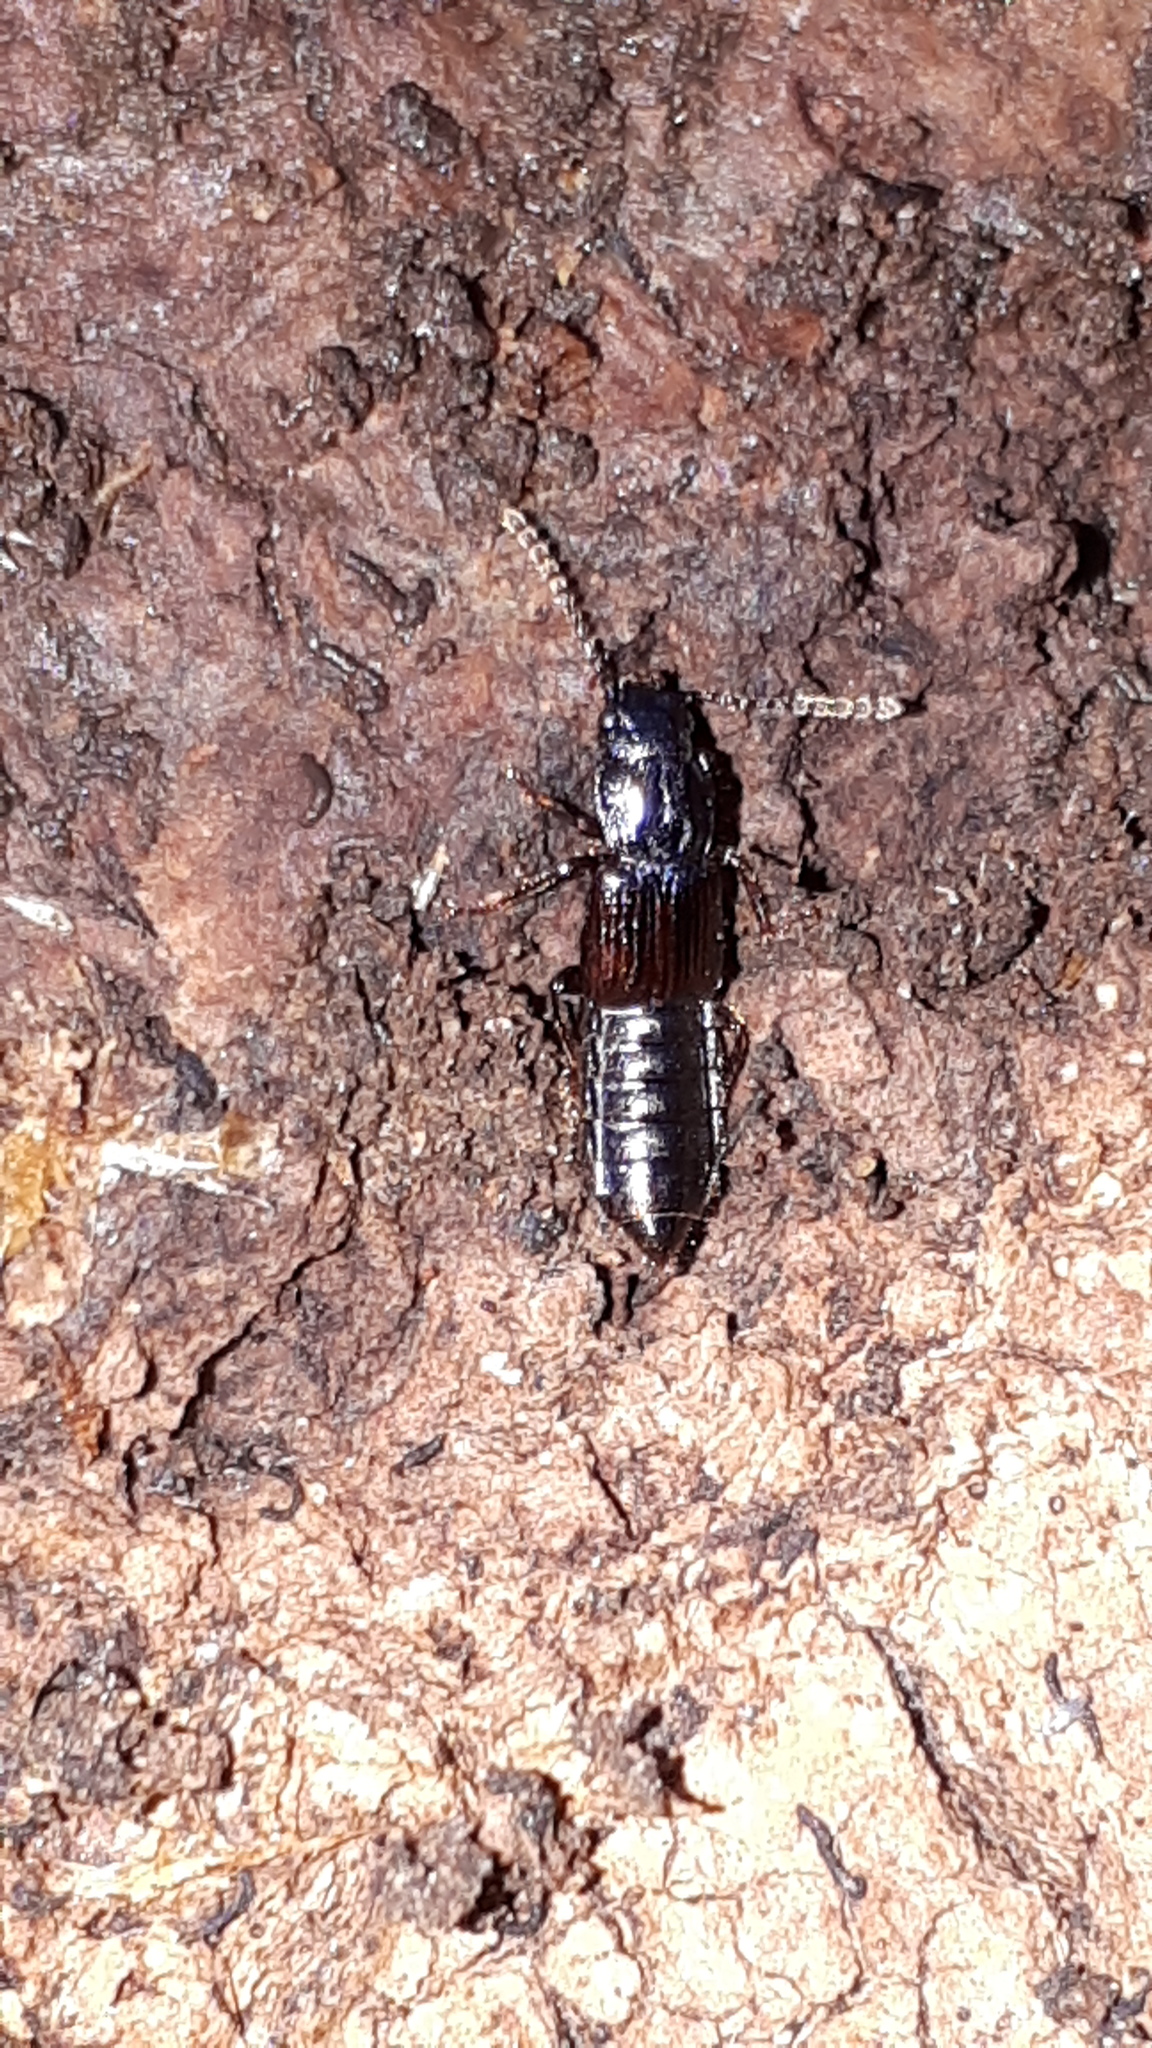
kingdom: Animalia
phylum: Arthropoda
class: Insecta
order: Coleoptera
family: Staphylinidae
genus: Coprophilus
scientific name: Coprophilus striatulus
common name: Rove beetle
